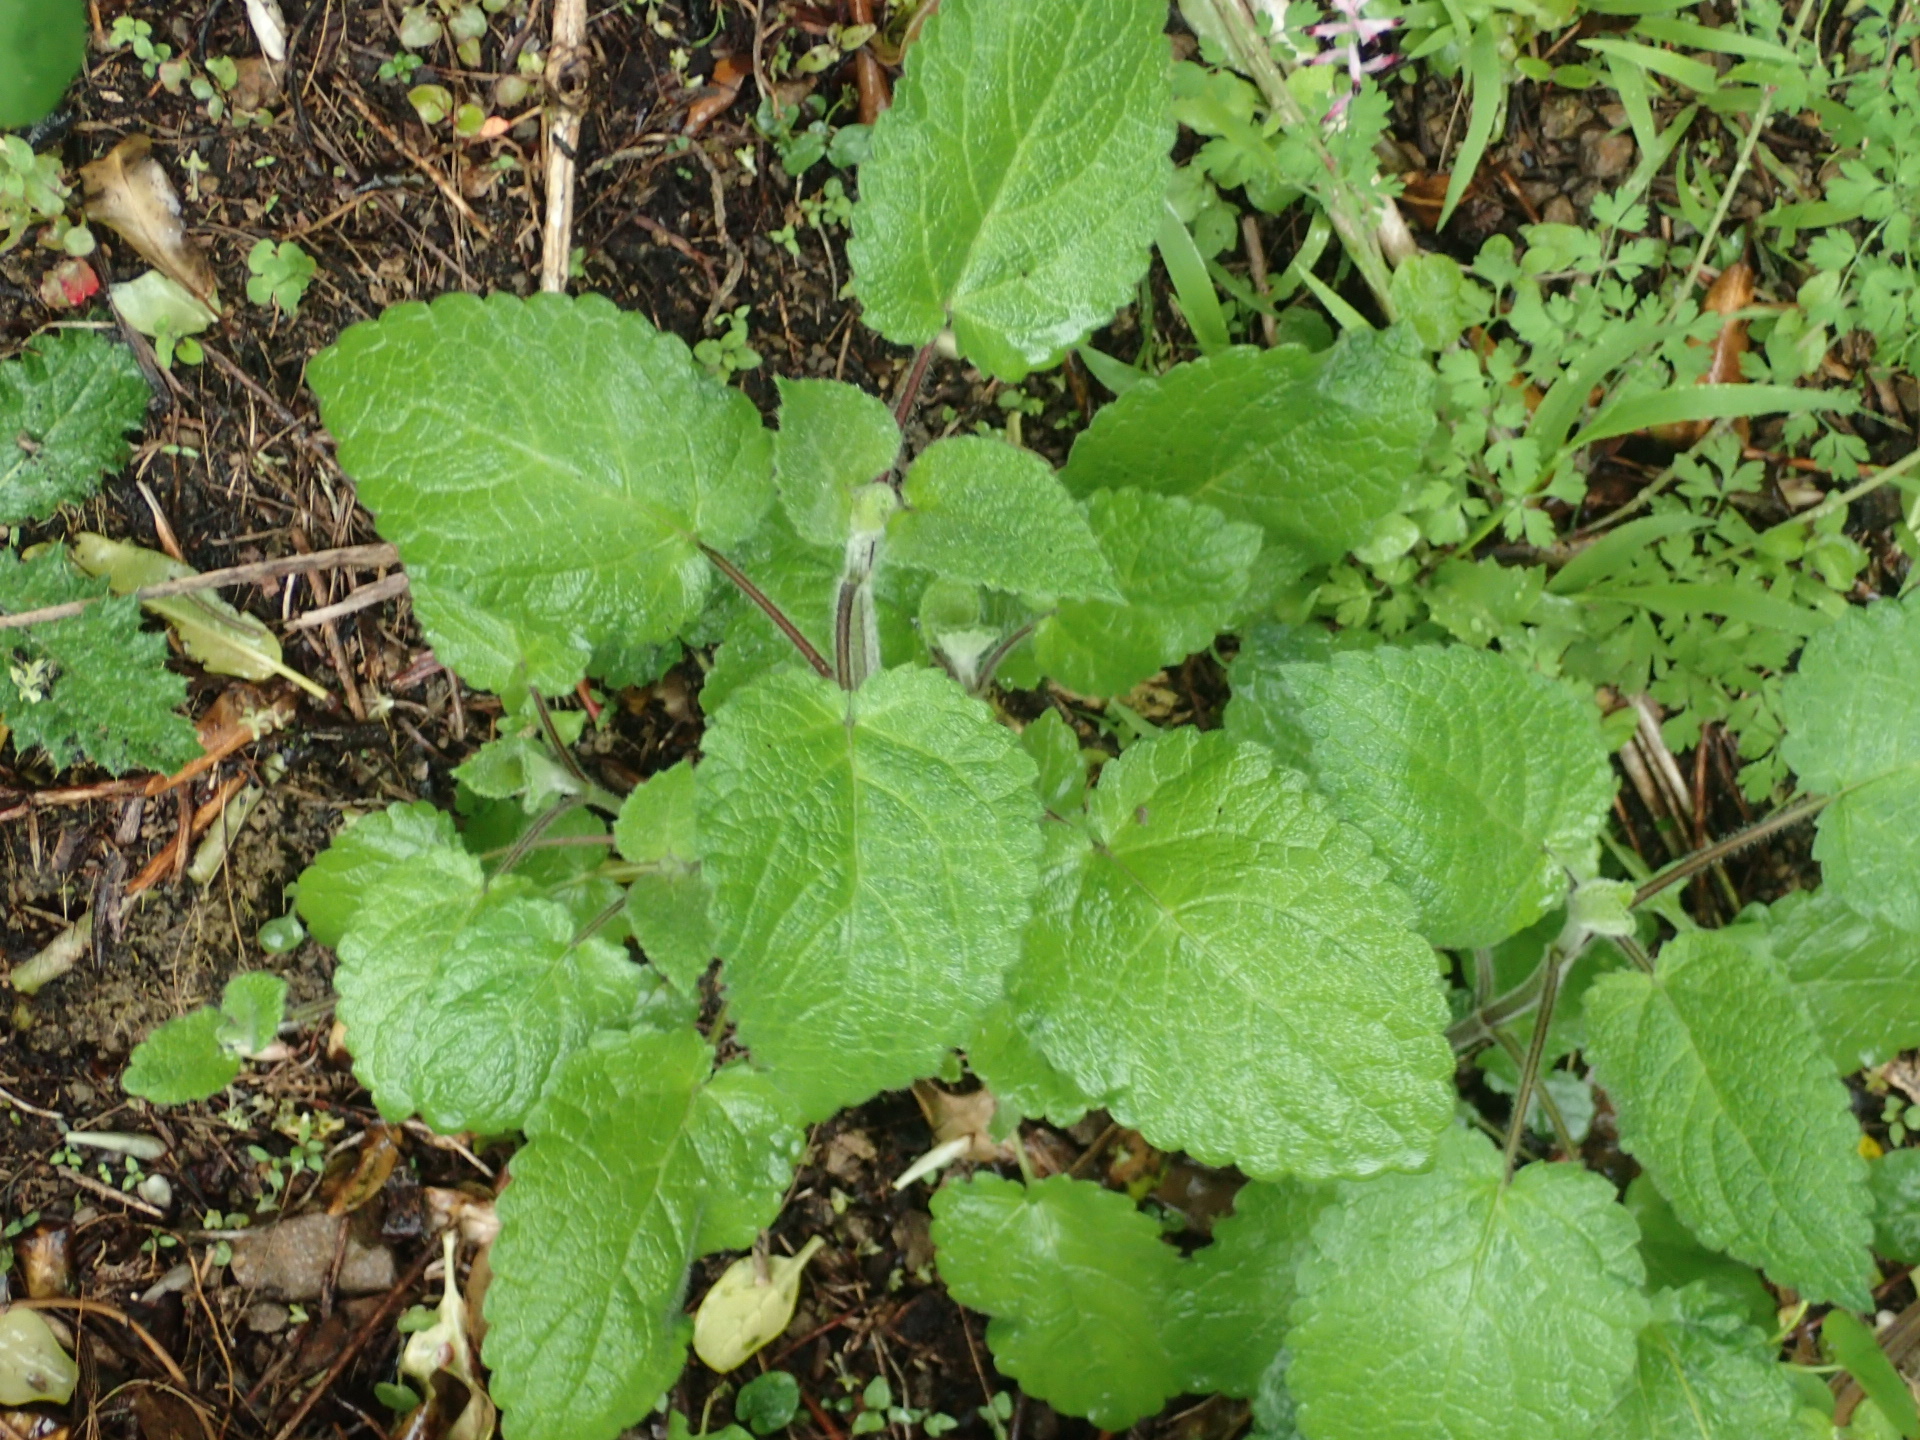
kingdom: Plantae
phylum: Tracheophyta
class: Magnoliopsida
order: Lamiales
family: Lamiaceae
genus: Stachys
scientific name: Stachys sylvatica
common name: Hedge woundwort
